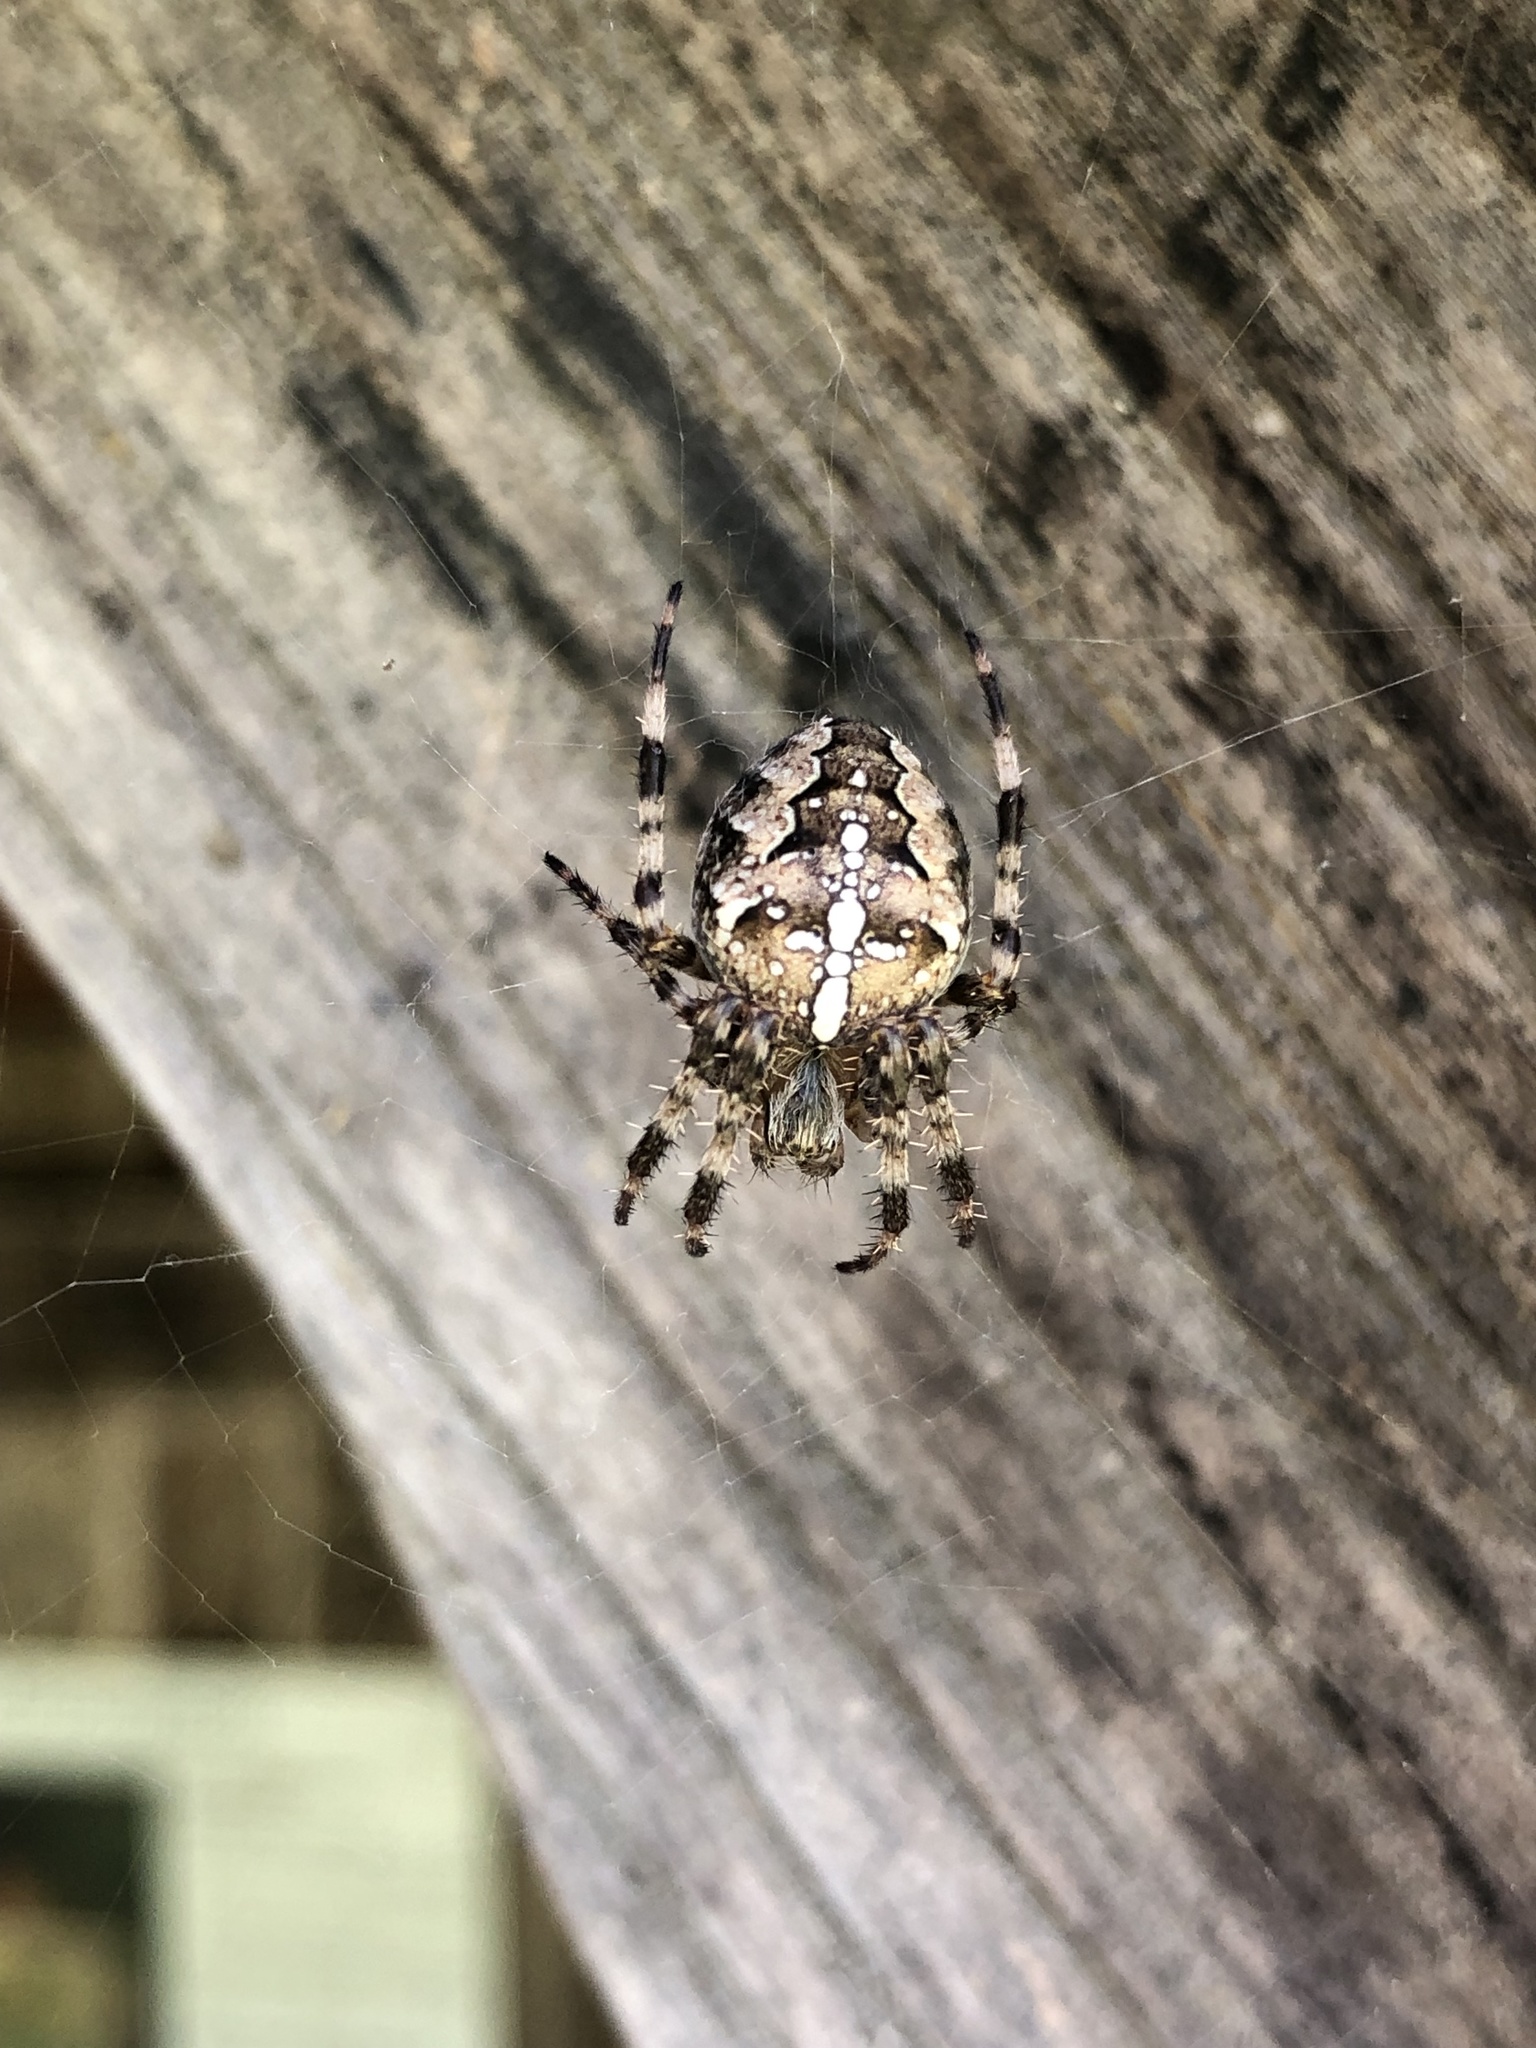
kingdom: Animalia
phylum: Arthropoda
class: Arachnida
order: Araneae
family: Araneidae
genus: Araneus
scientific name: Araneus diadematus
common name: Cross orbweaver
